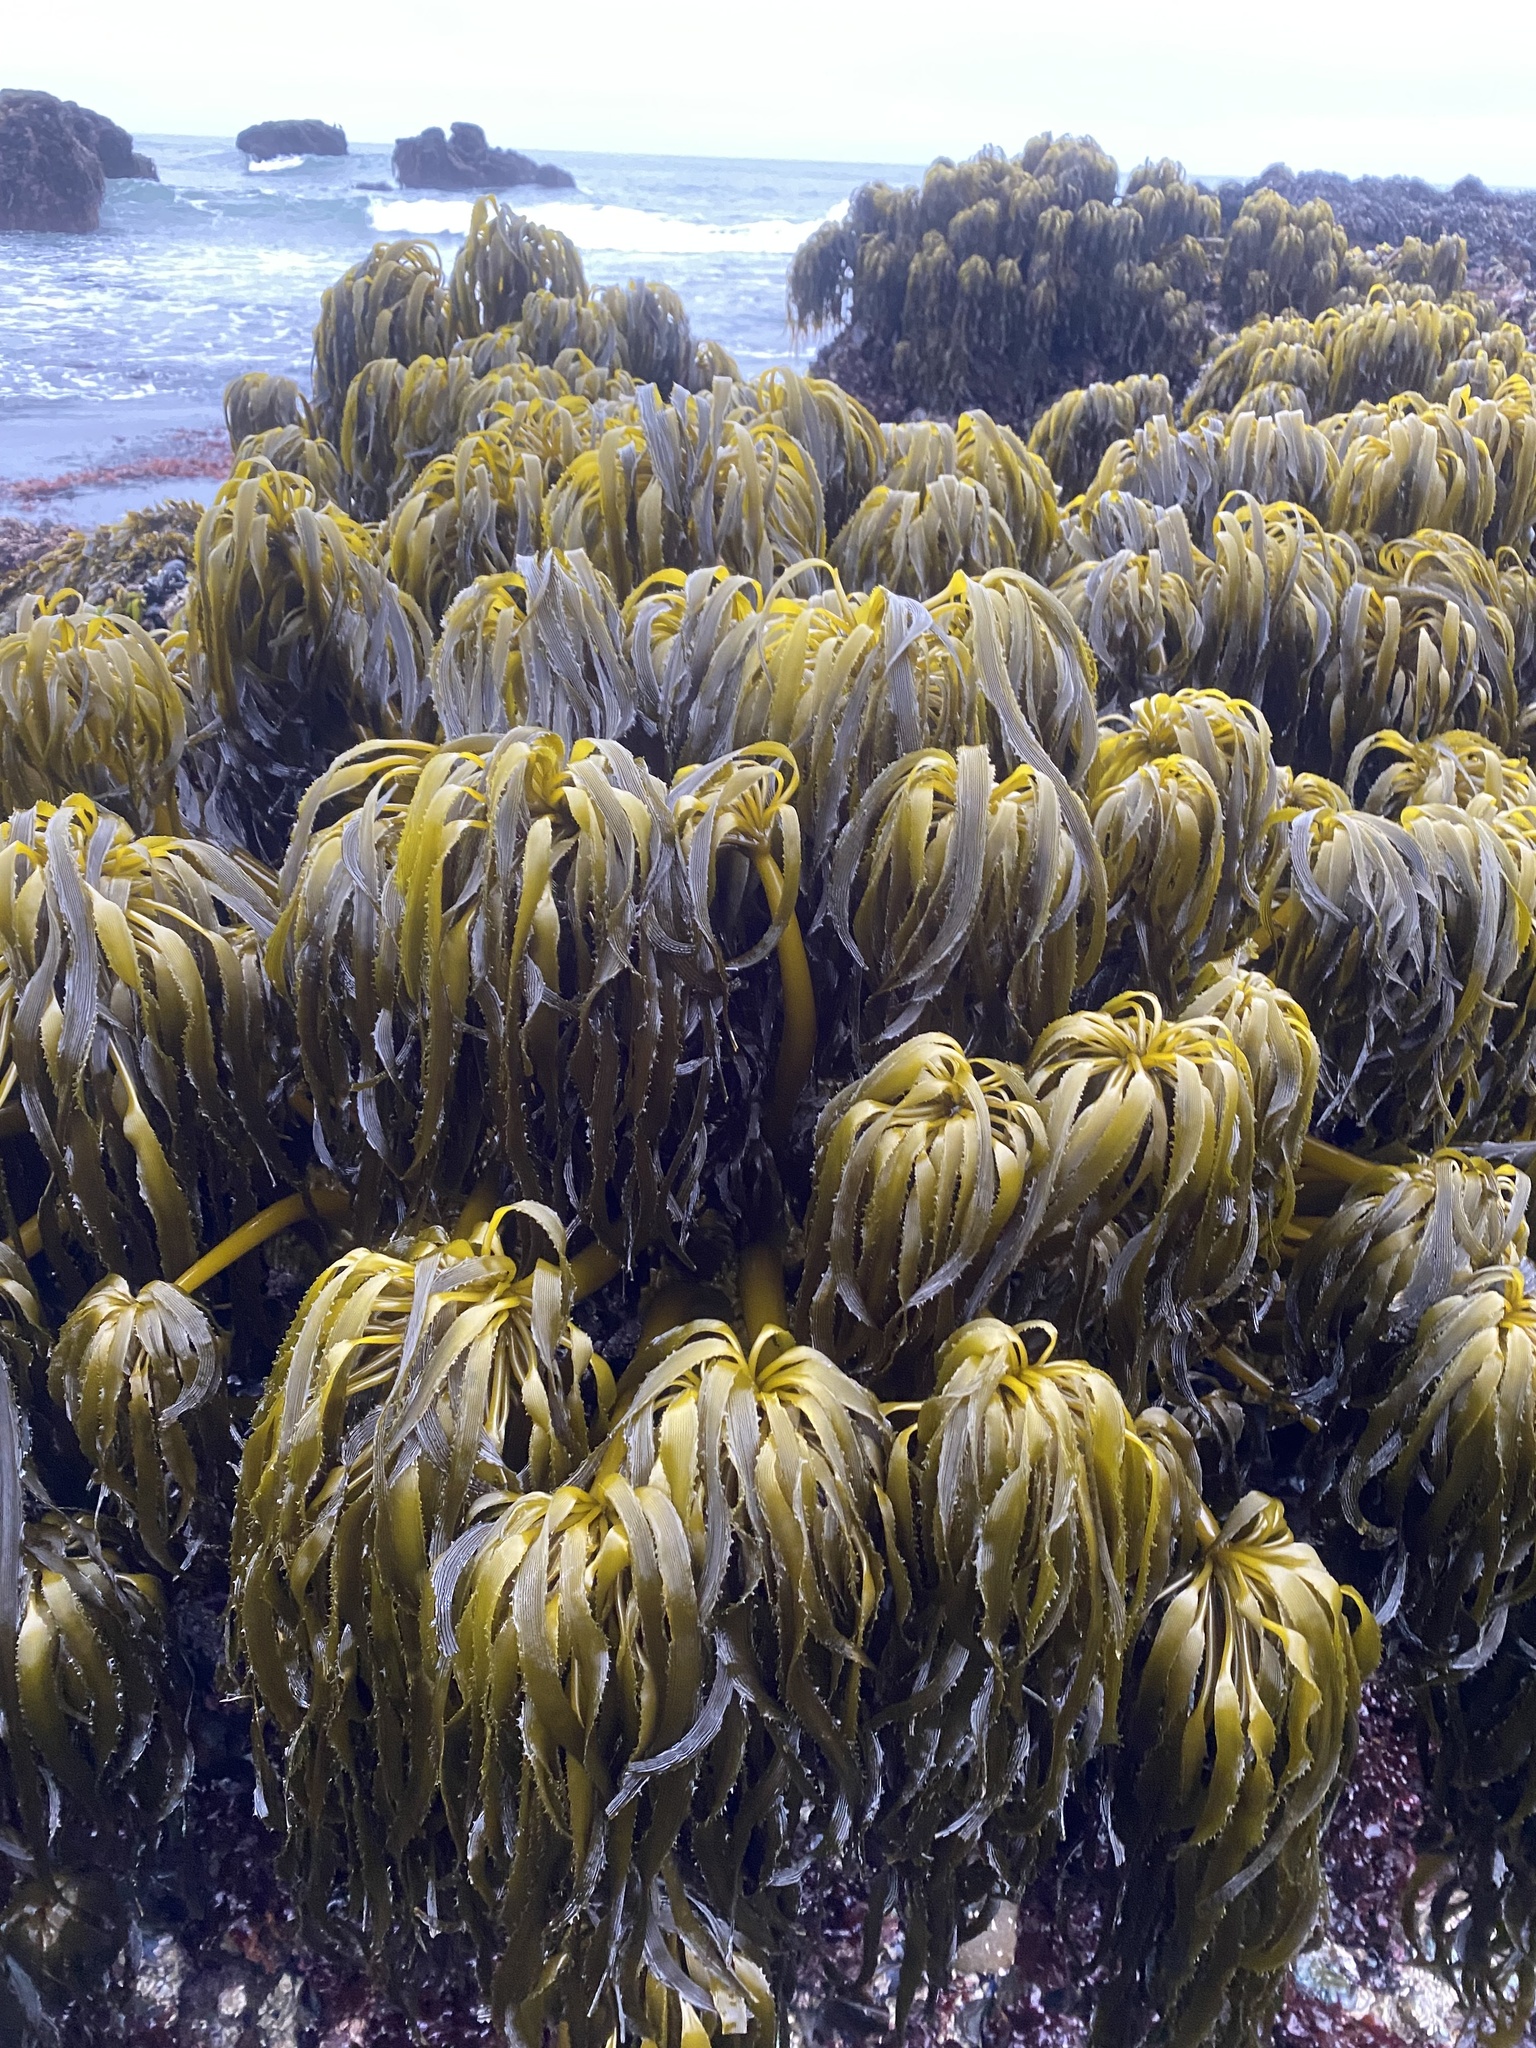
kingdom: Chromista
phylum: Ochrophyta
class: Phaeophyceae
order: Laminariales
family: Laminariaceae
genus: Postelsia
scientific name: Postelsia palmiformis
